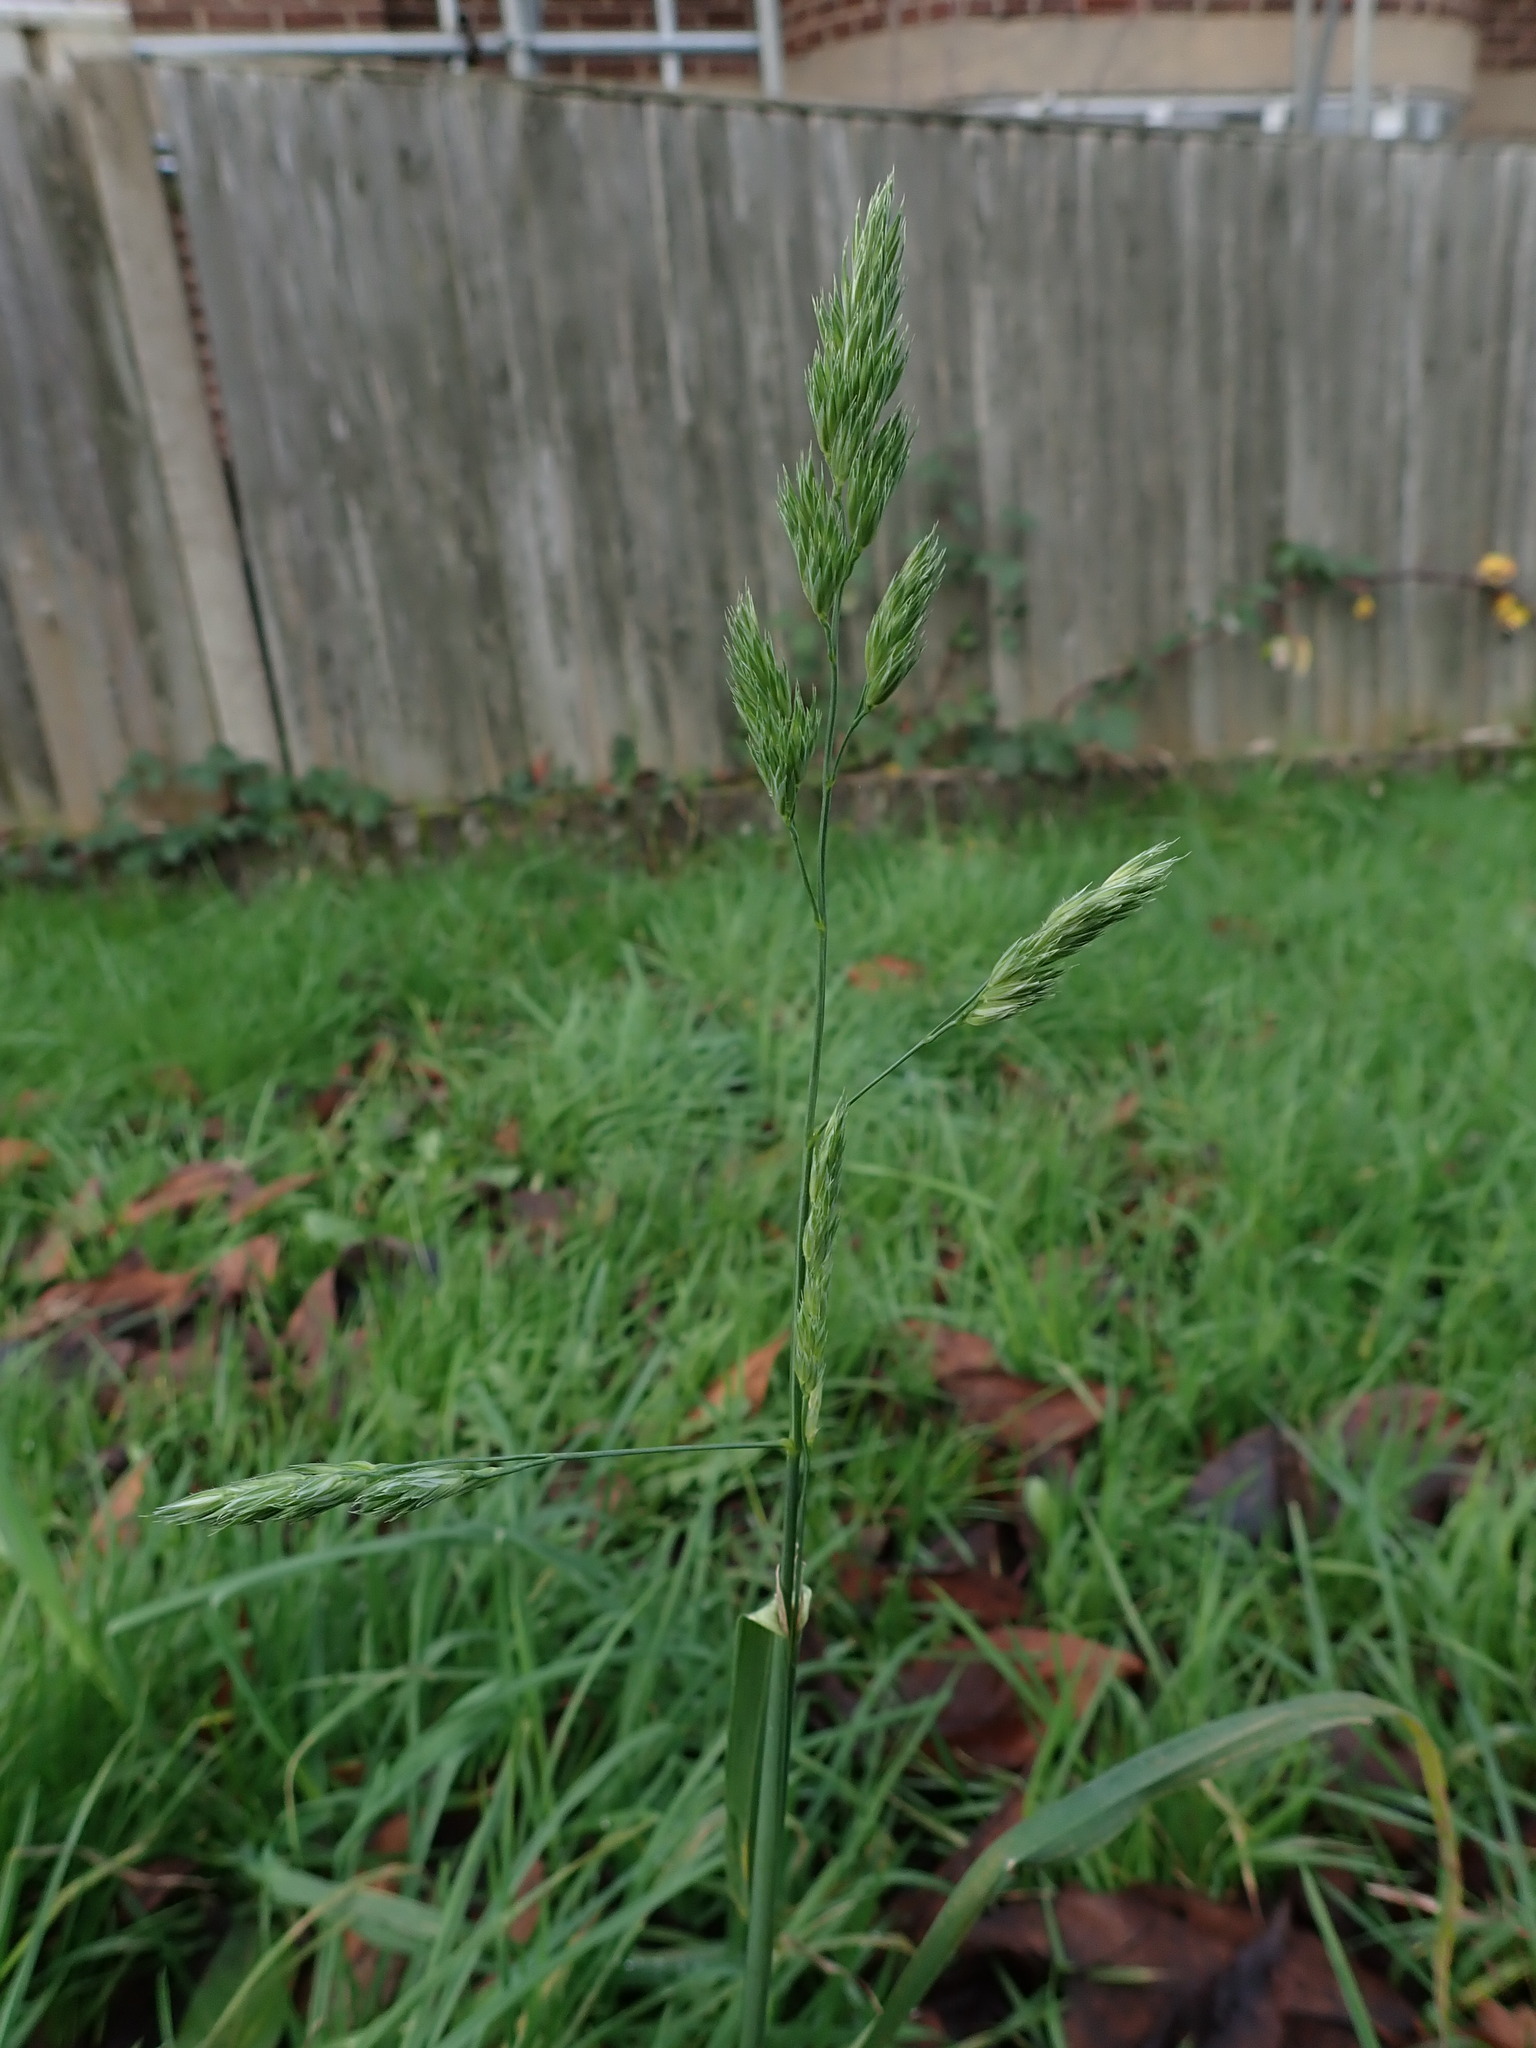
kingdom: Plantae
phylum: Tracheophyta
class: Liliopsida
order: Poales
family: Poaceae
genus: Dactylis
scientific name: Dactylis glomerata
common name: Orchardgrass
